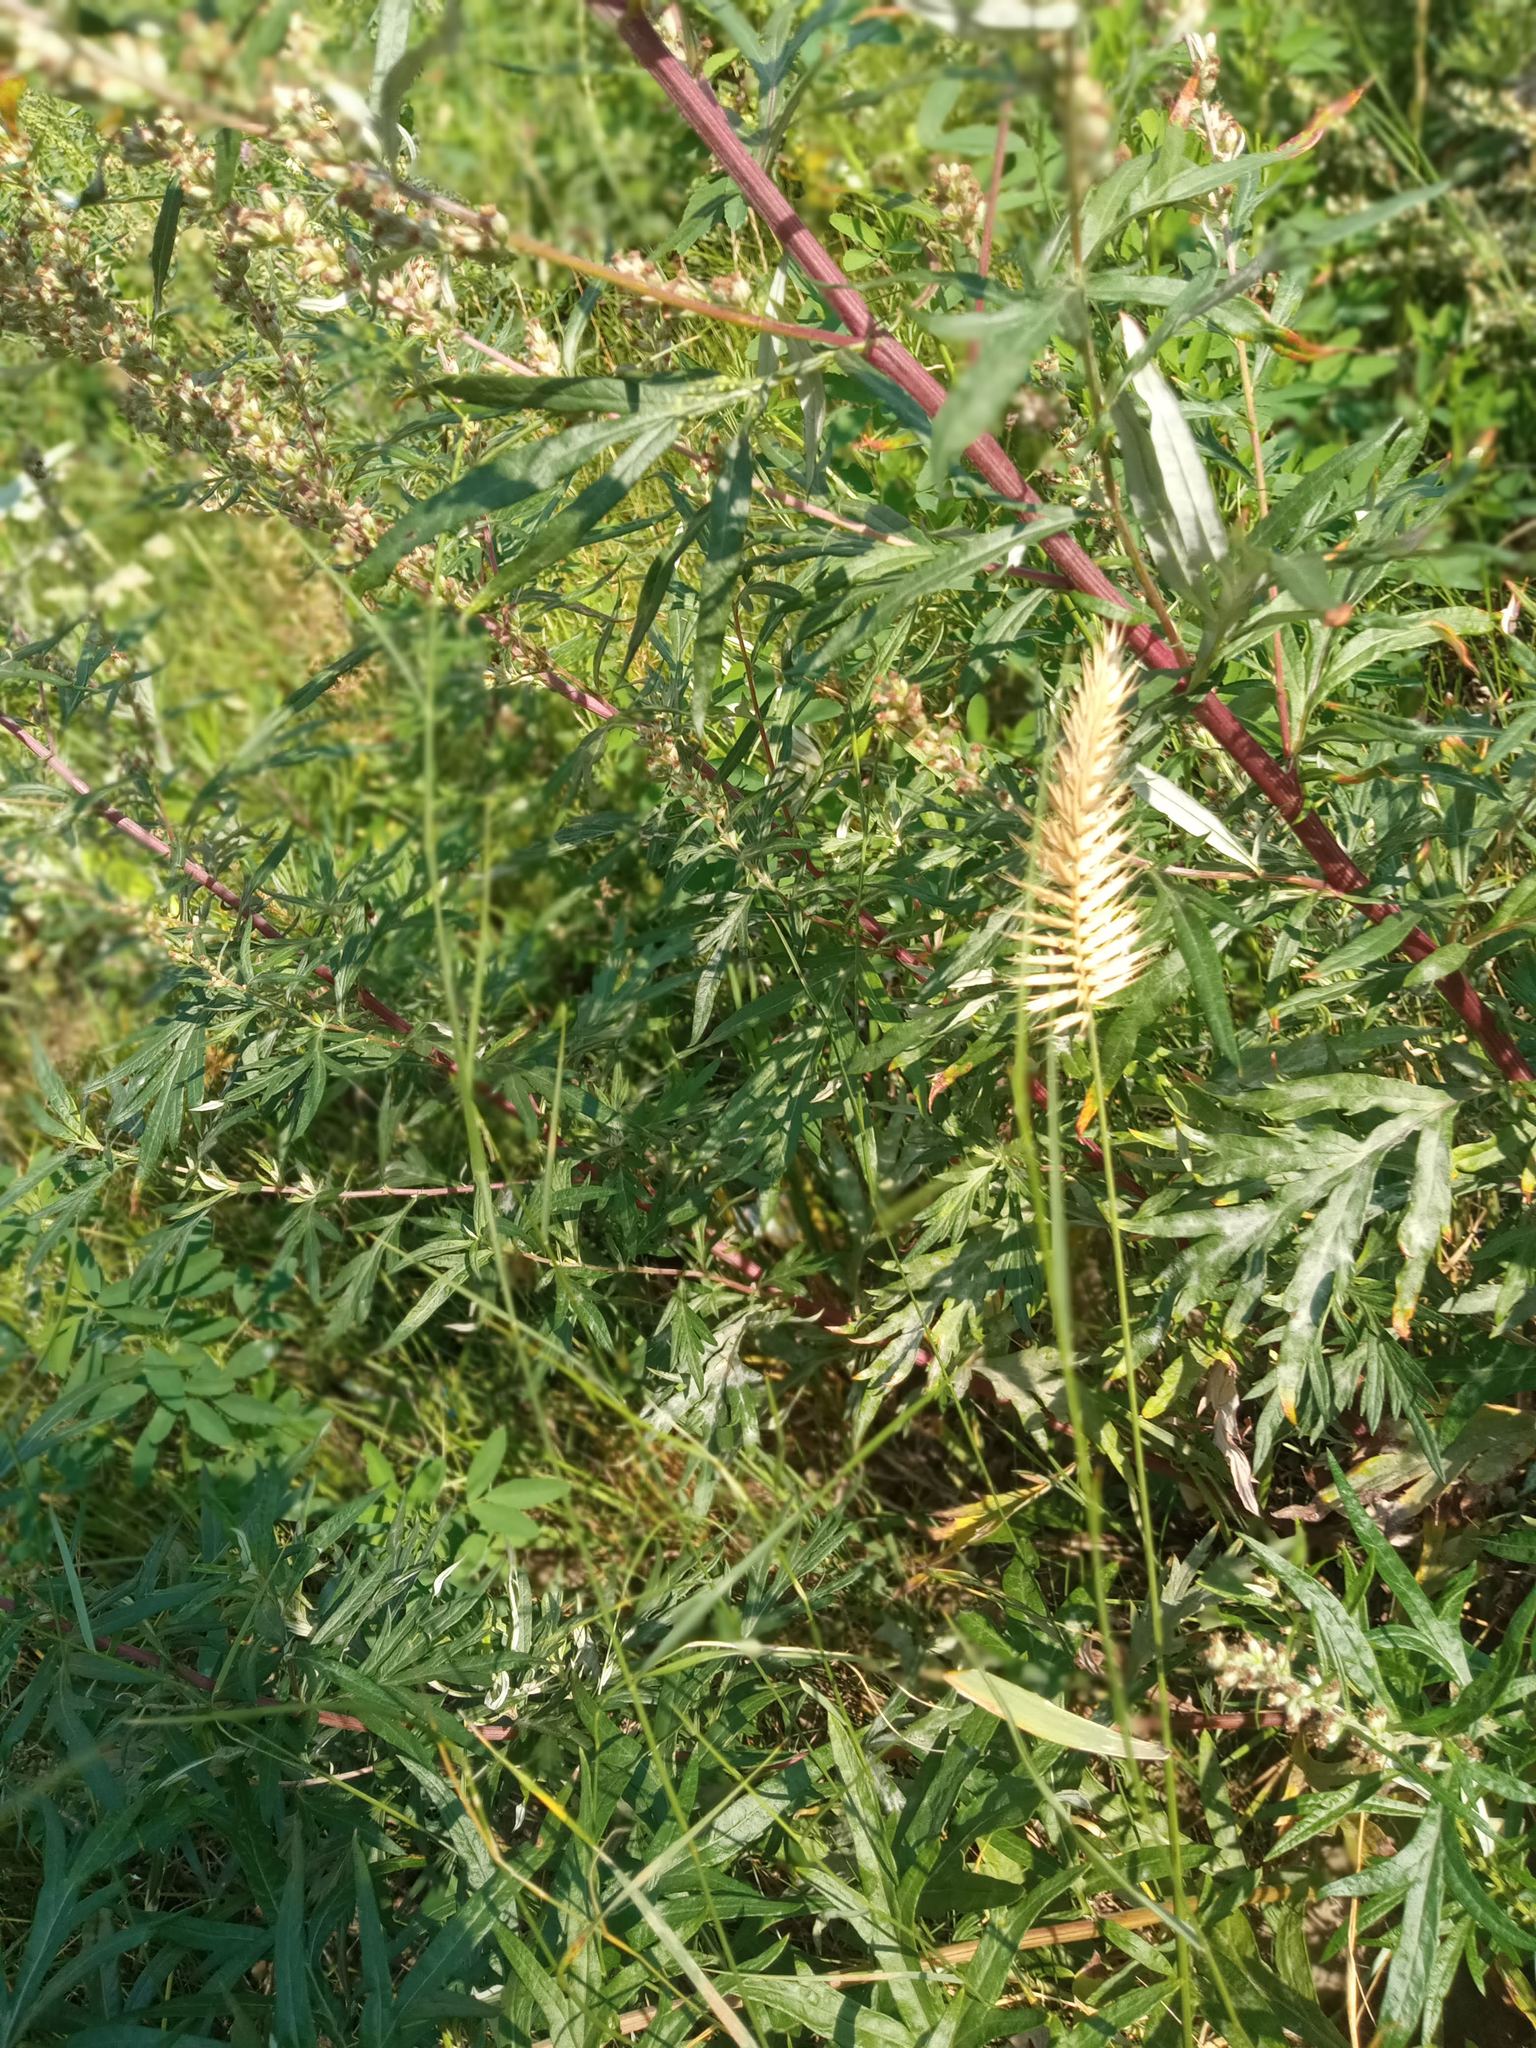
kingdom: Plantae
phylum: Tracheophyta
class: Liliopsida
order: Poales
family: Poaceae
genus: Agropyron
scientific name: Agropyron cristatum
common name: Crested wheatgrass
